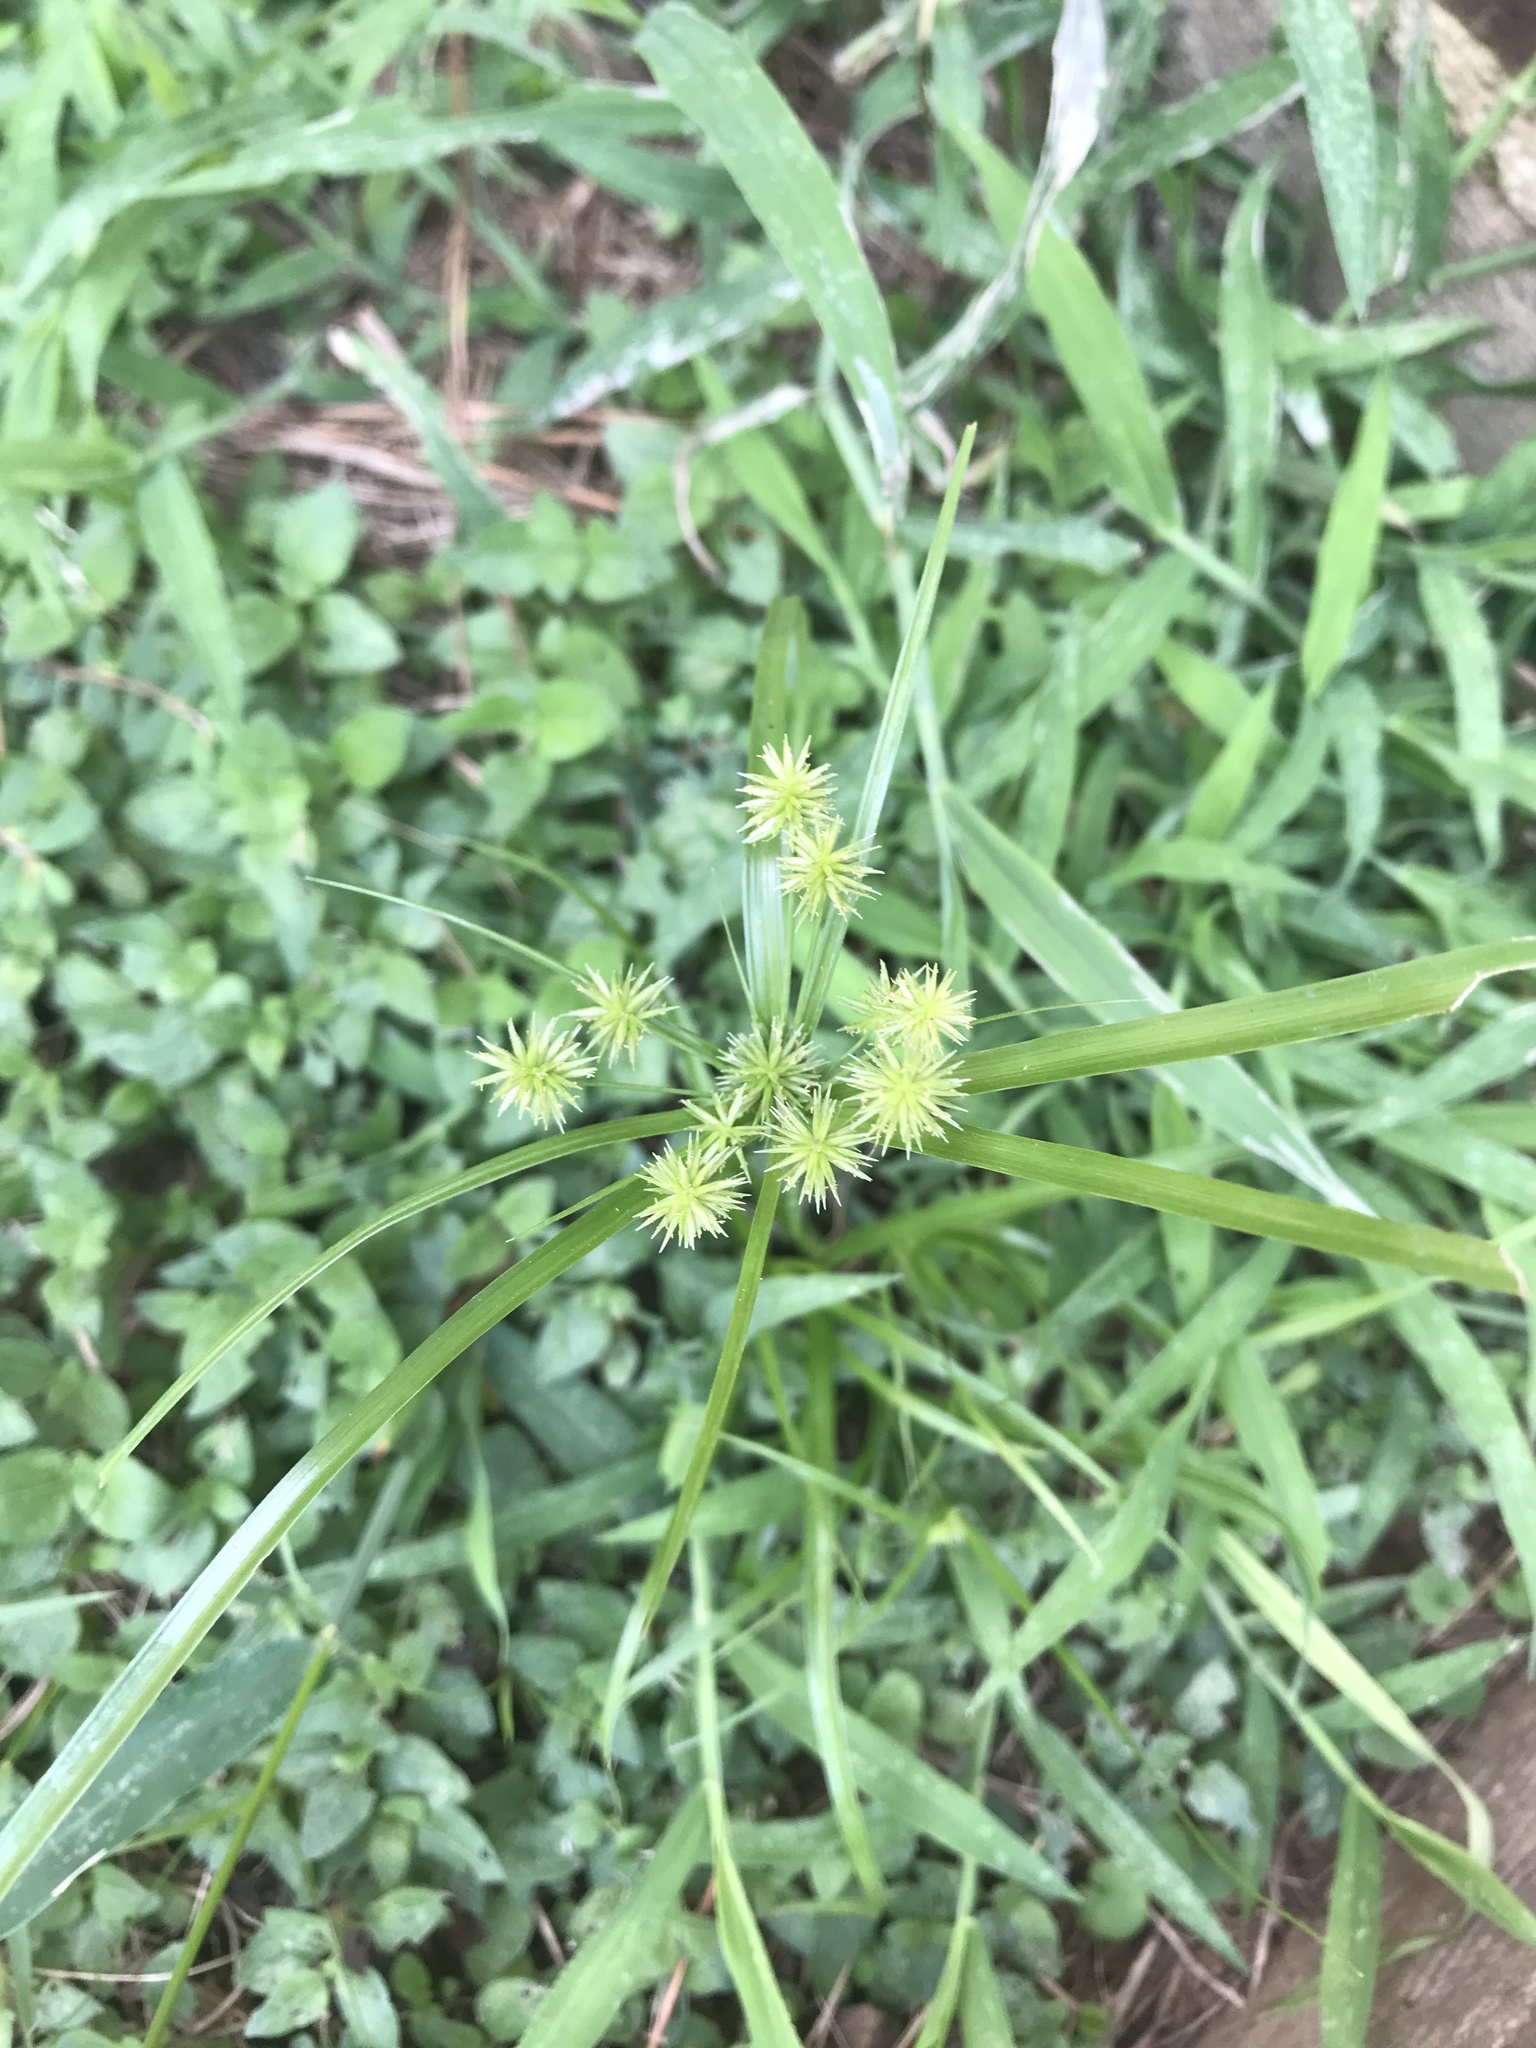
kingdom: Plantae
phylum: Tracheophyta
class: Liliopsida
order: Poales
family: Cyperaceae
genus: Cyperus
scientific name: Cyperus croceus
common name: Baldwin's flatsedge
